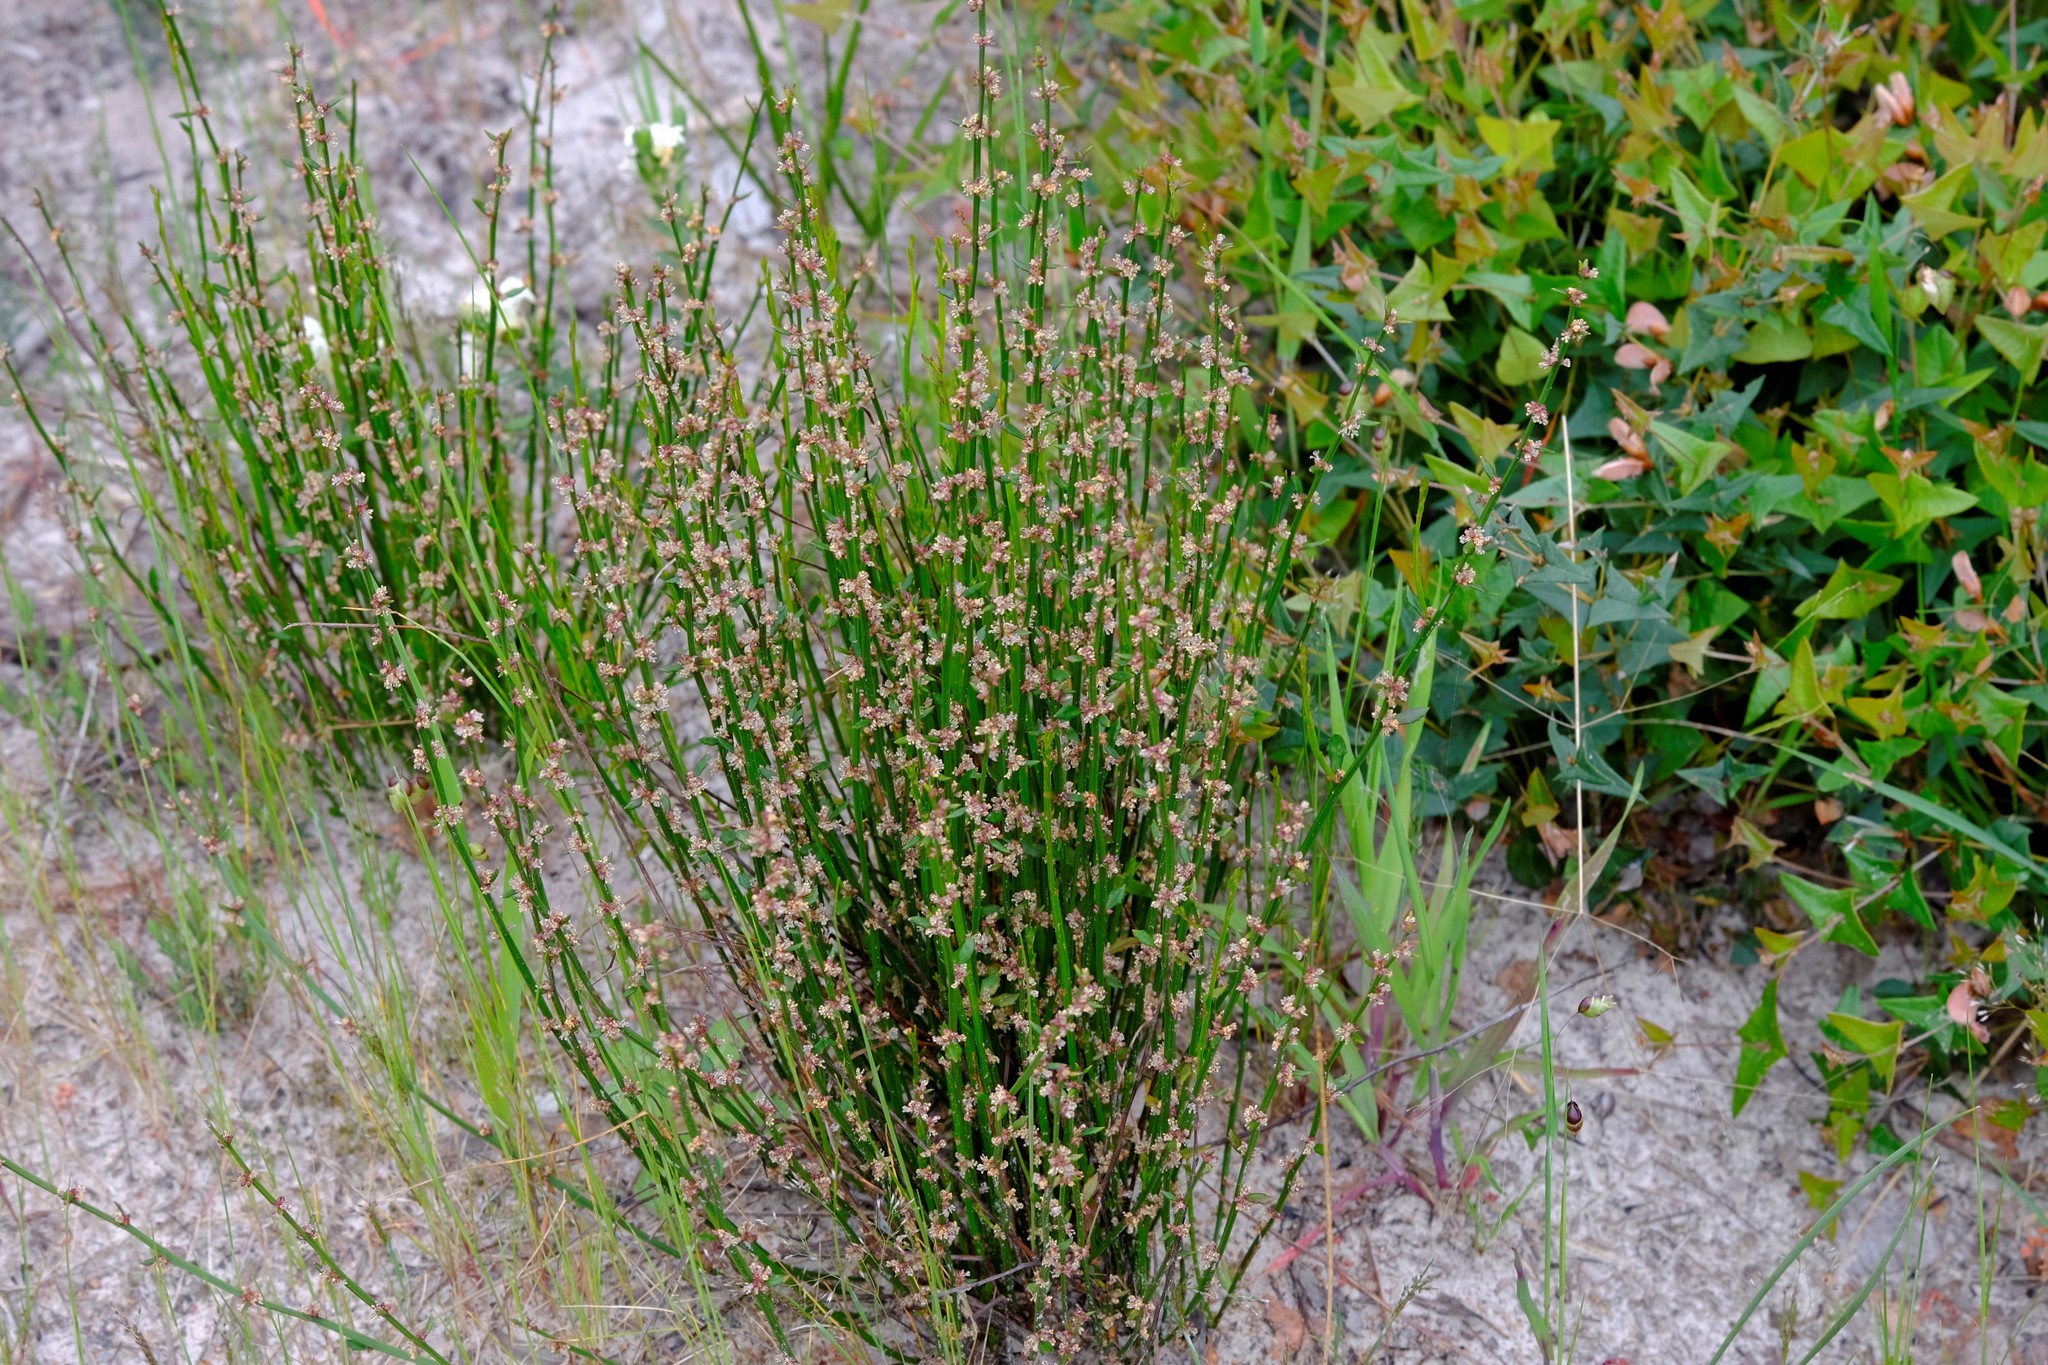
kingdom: Plantae
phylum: Tracheophyta
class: Magnoliopsida
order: Malpighiales
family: Euphorbiaceae
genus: Amperea
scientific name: Amperea xiphoclada
